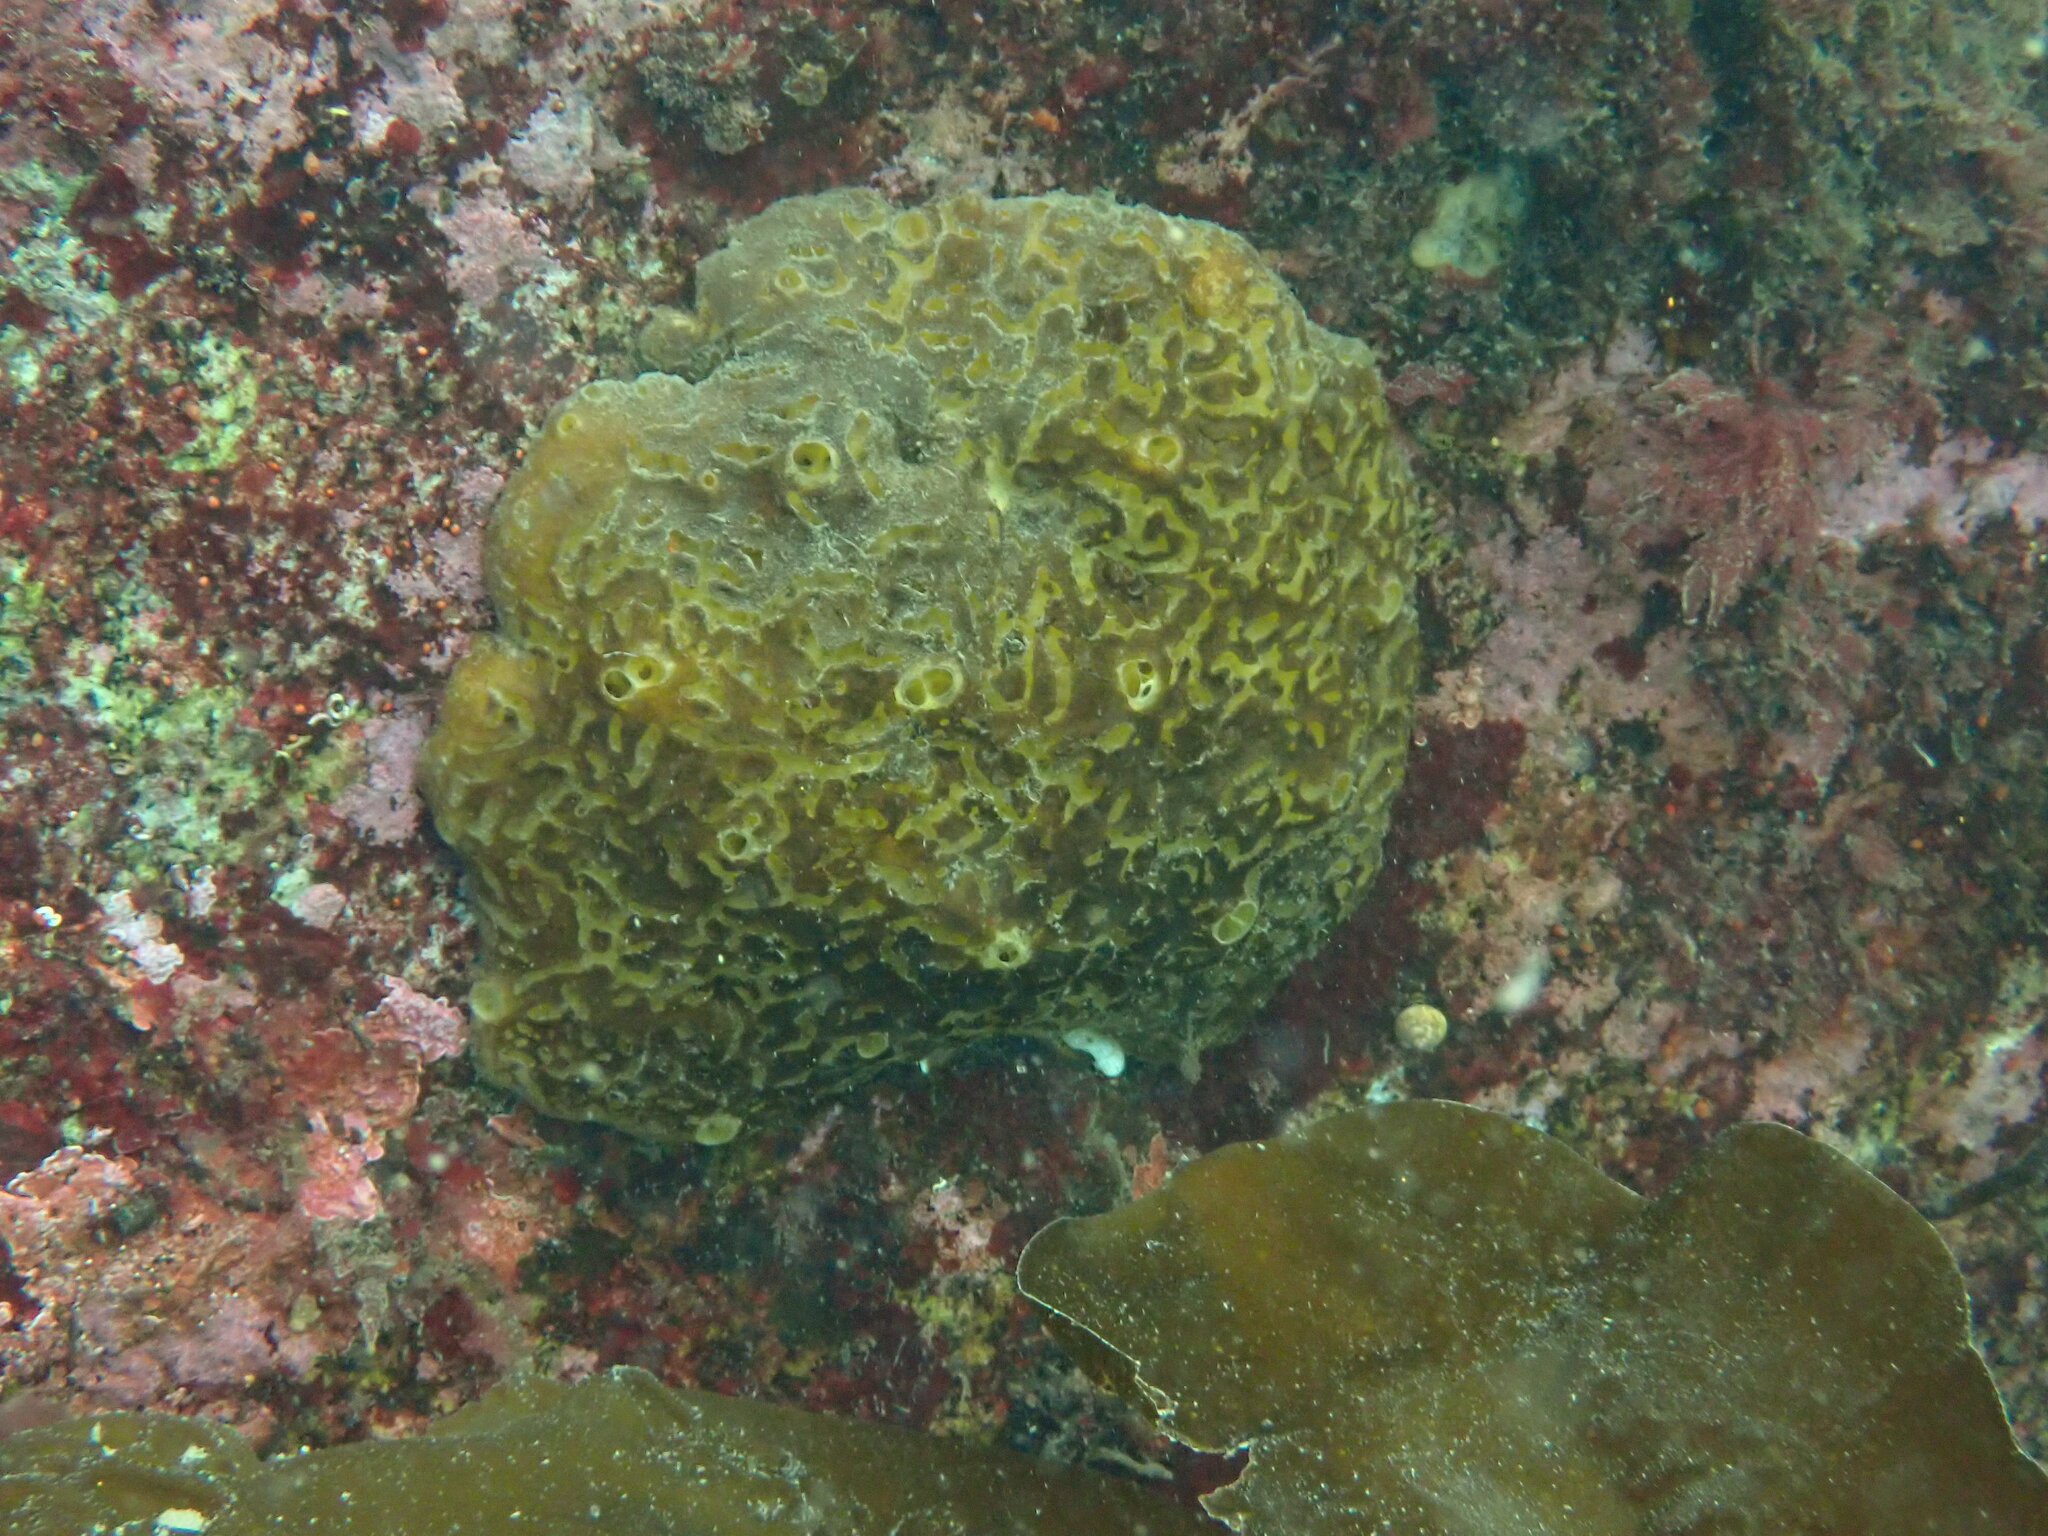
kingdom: Animalia
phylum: Porifera
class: Demospongiae
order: Poecilosclerida
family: Mycalidae
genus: Mycale
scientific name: Mycale toporoki
